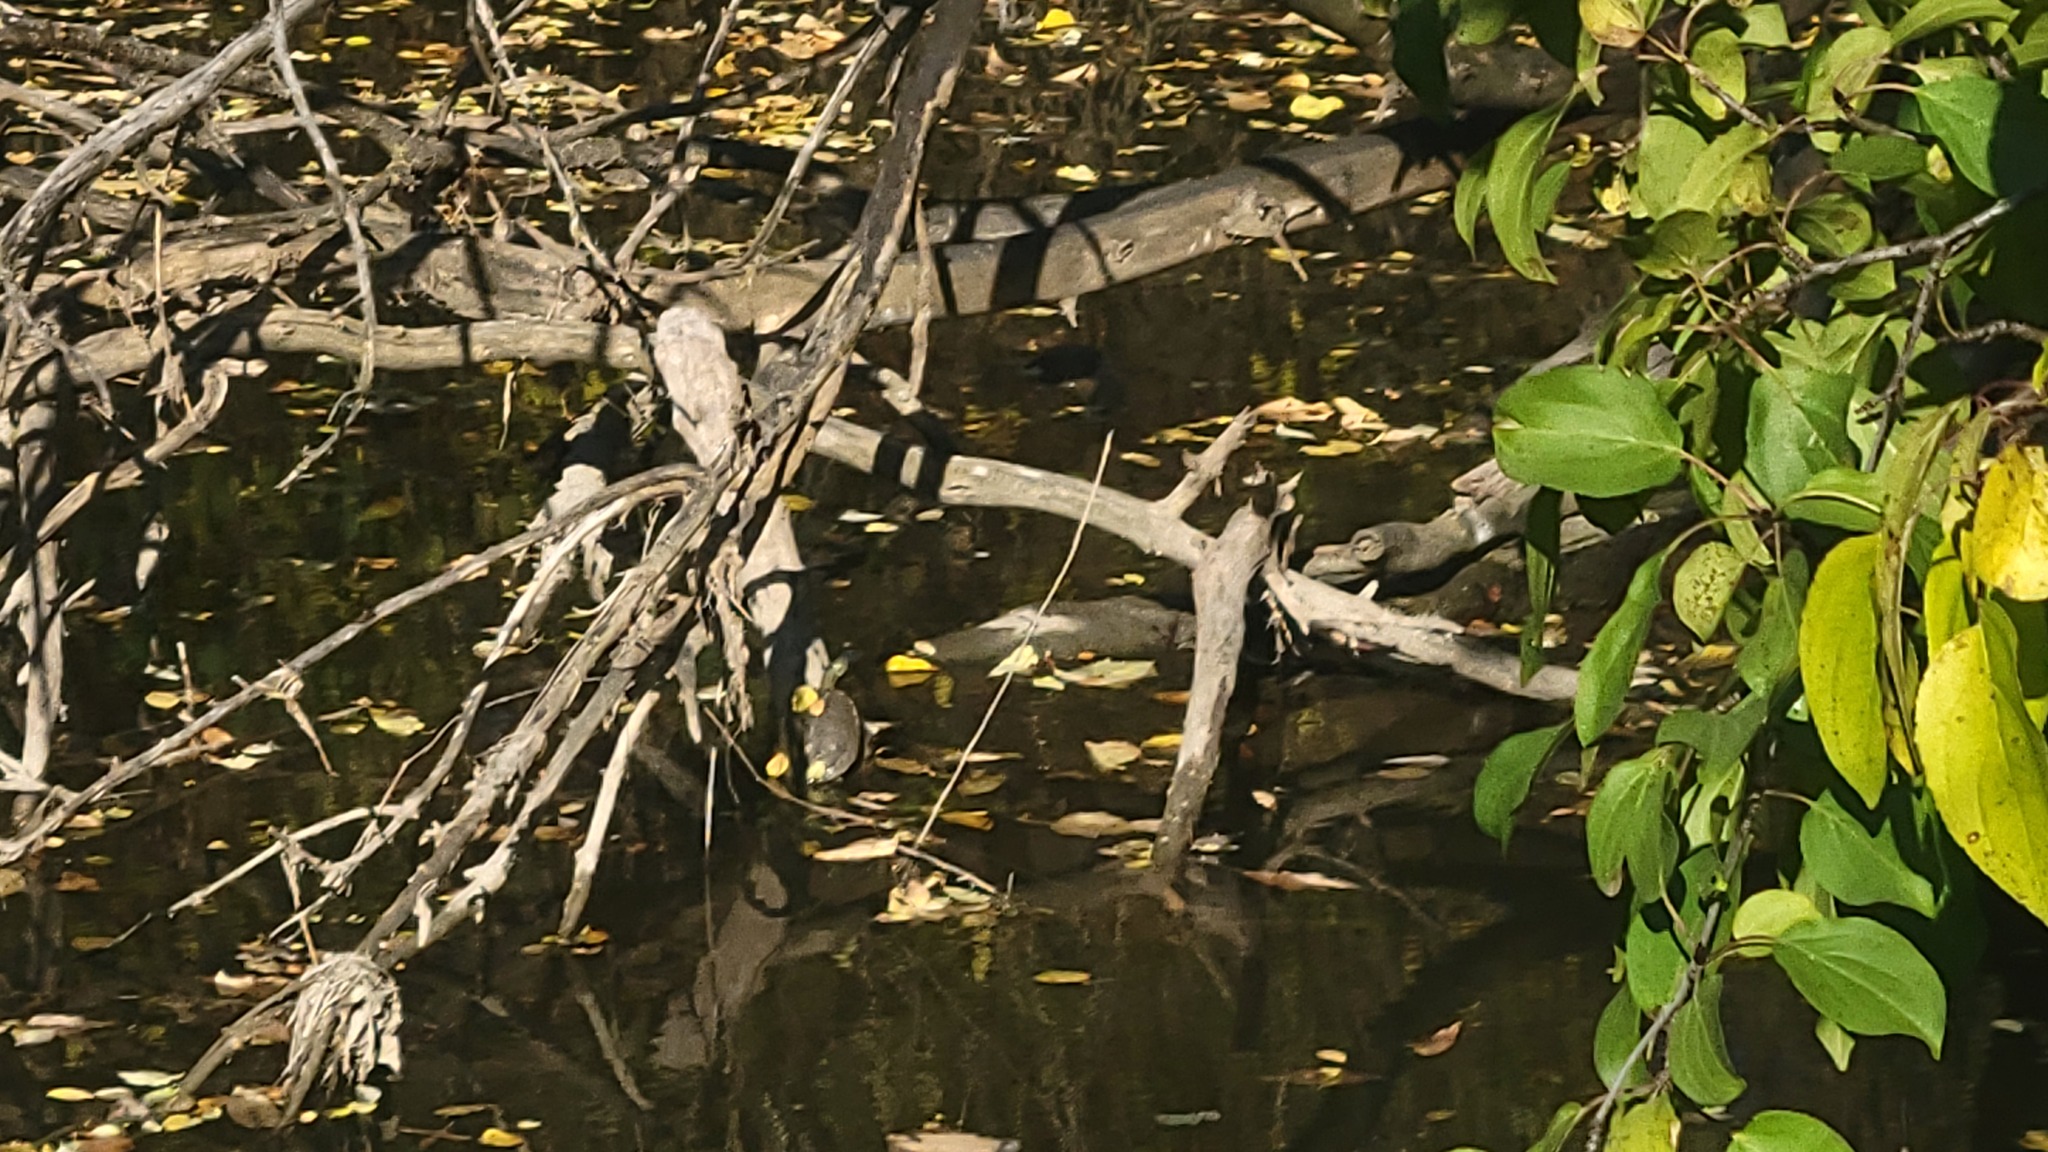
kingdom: Animalia
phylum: Chordata
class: Testudines
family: Emydidae
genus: Graptemys
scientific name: Graptemys geographica
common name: Common map turtle
